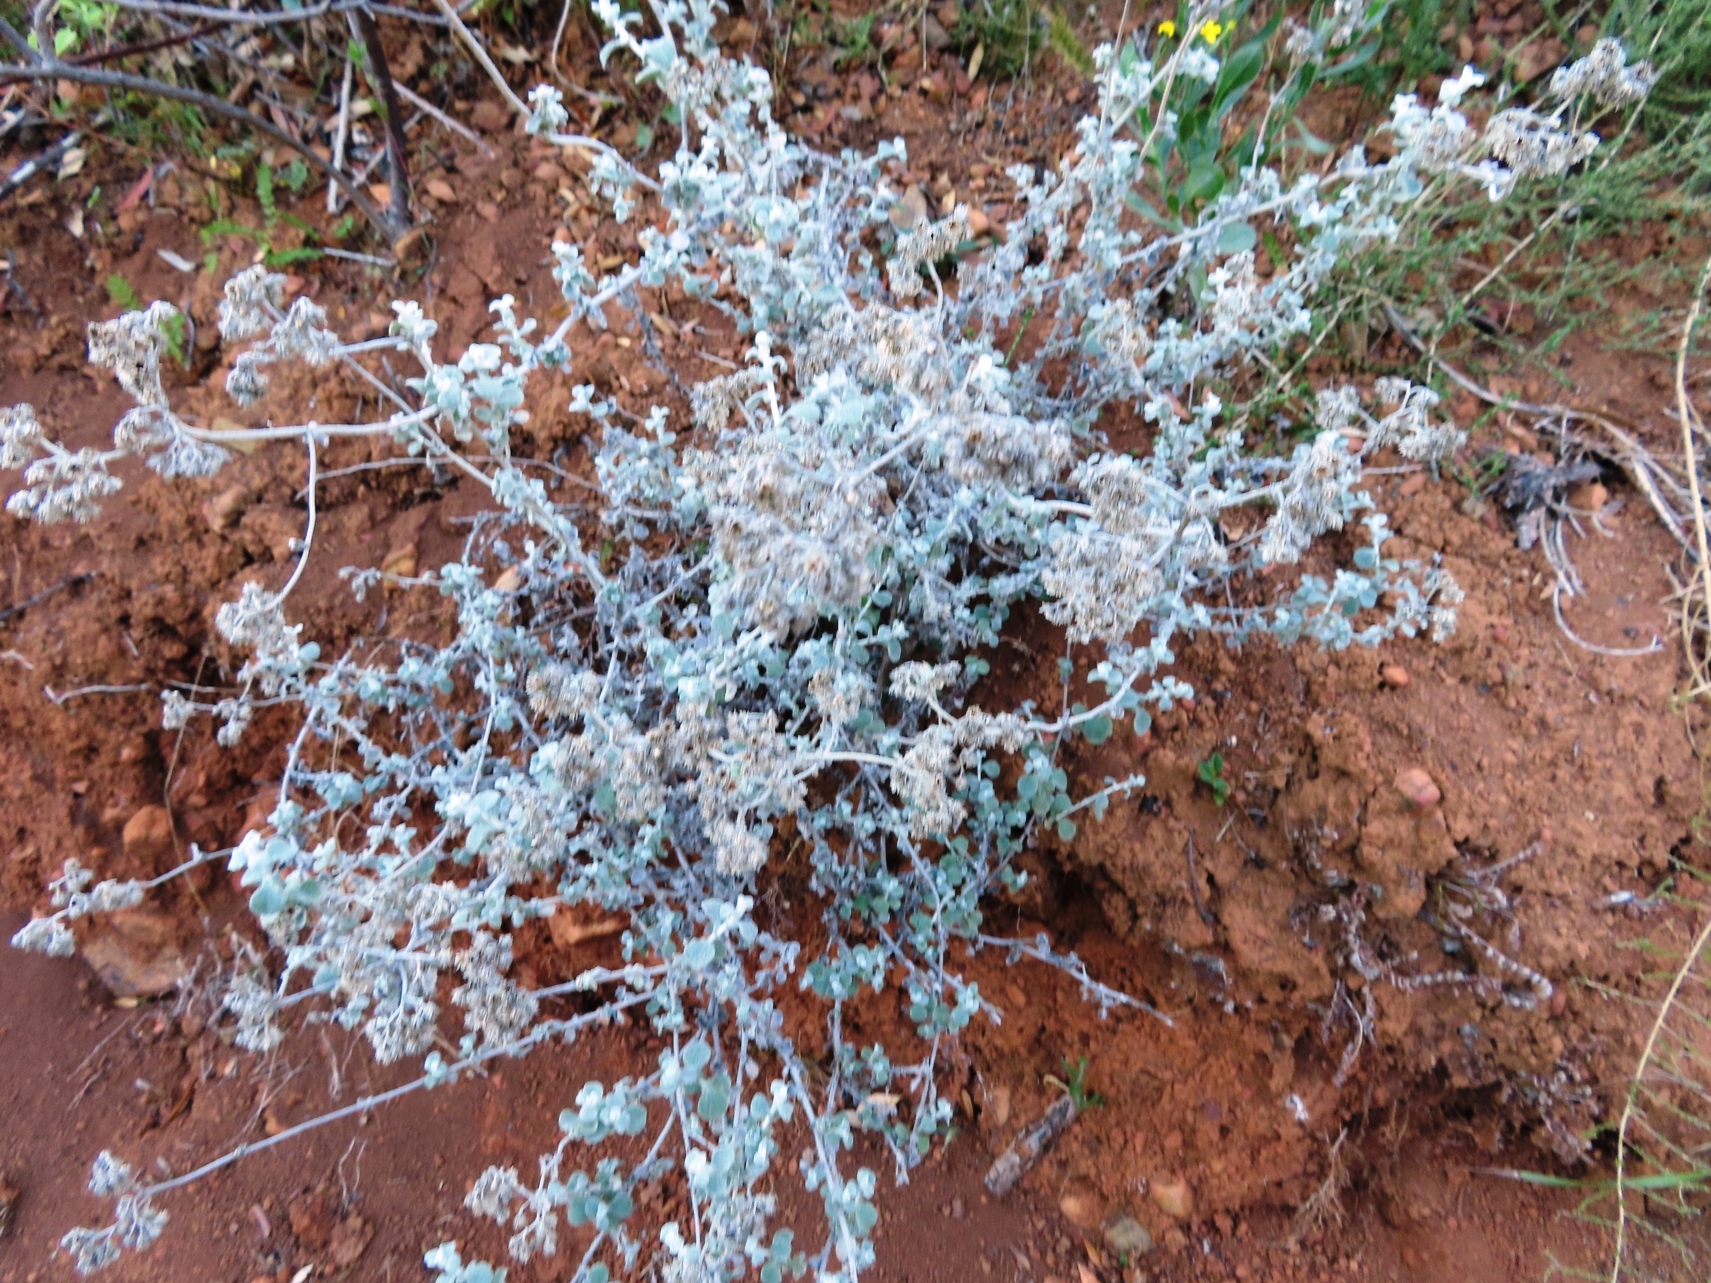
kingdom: Plantae
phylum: Tracheophyta
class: Magnoliopsida
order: Asterales
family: Asteraceae
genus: Helichrysum
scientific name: Helichrysum patulum
